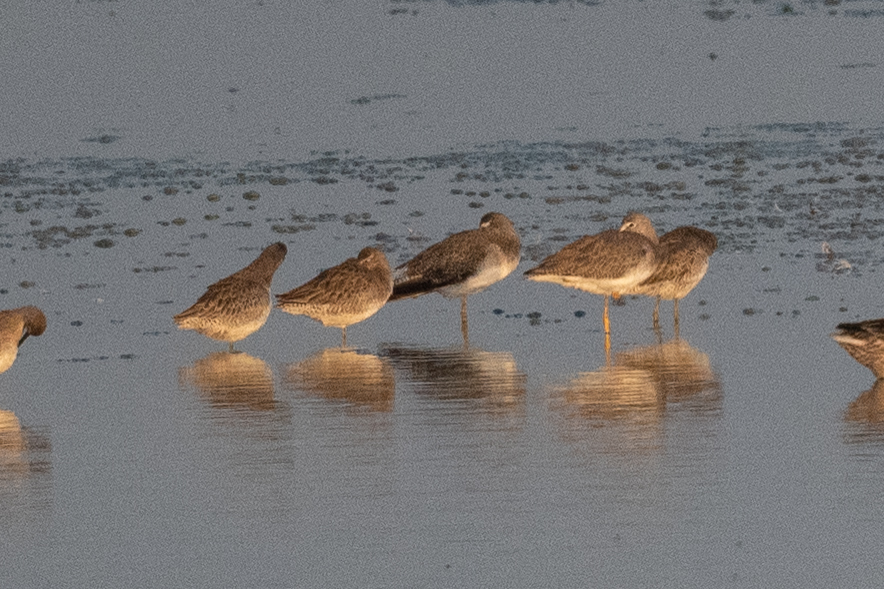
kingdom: Animalia
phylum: Chordata
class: Aves
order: Charadriiformes
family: Scolopacidae
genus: Tringa
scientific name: Tringa melanoleuca
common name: Greater yellowlegs
